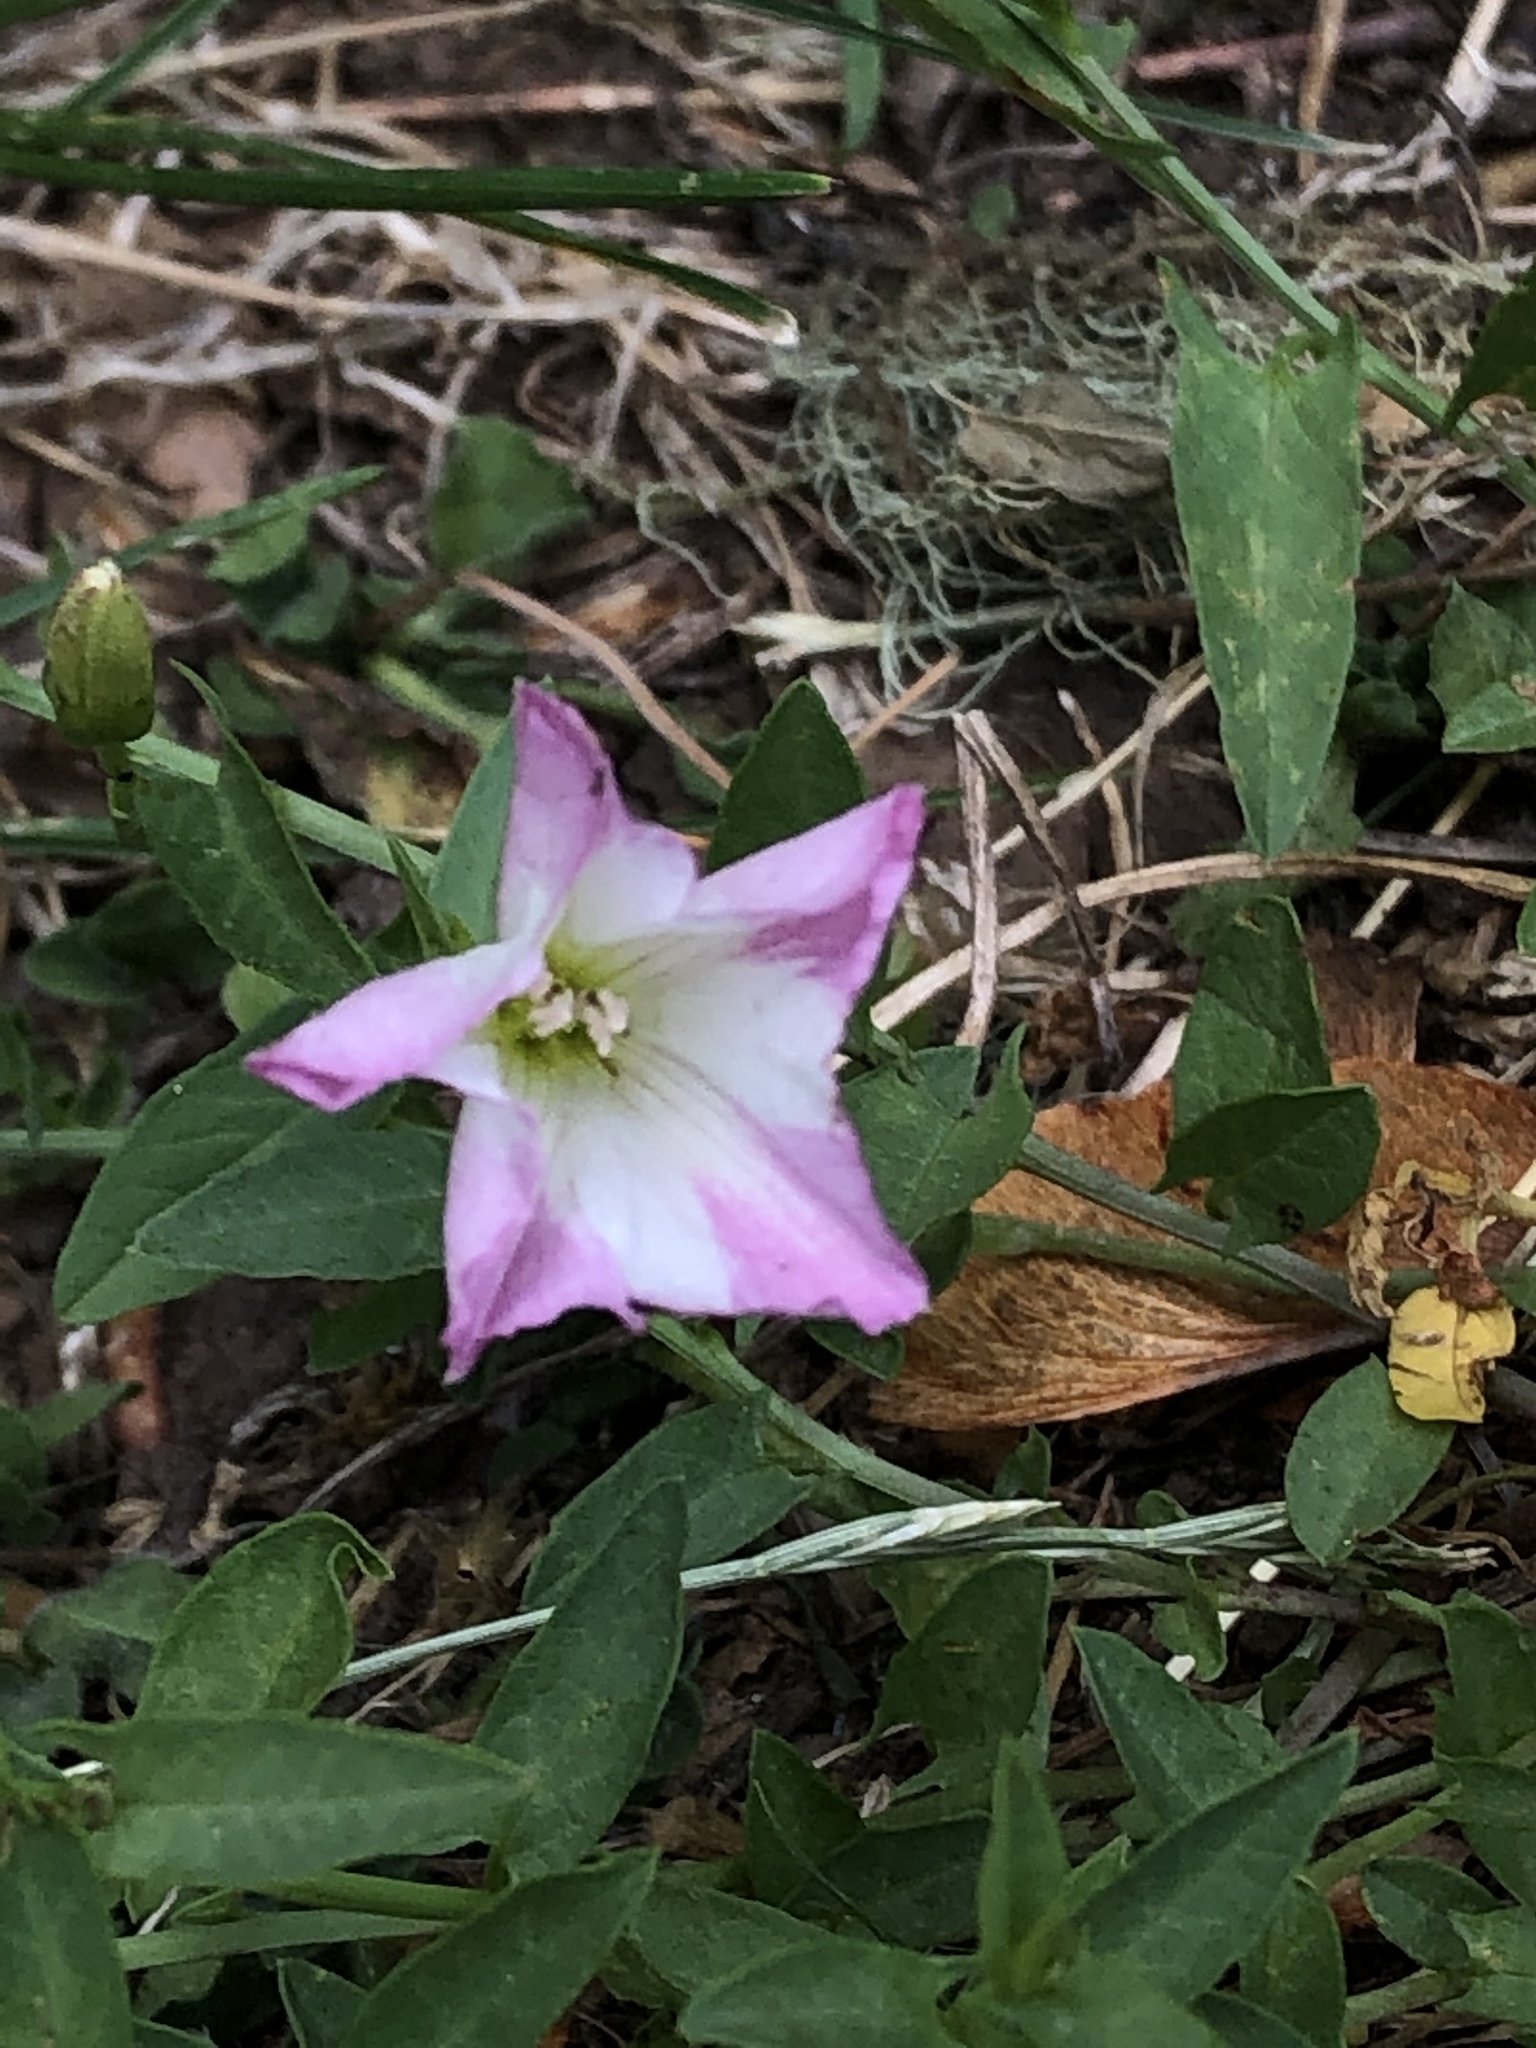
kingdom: Plantae
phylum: Tracheophyta
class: Magnoliopsida
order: Solanales
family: Convolvulaceae
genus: Convolvulus
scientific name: Convolvulus arvensis
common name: Field bindweed
